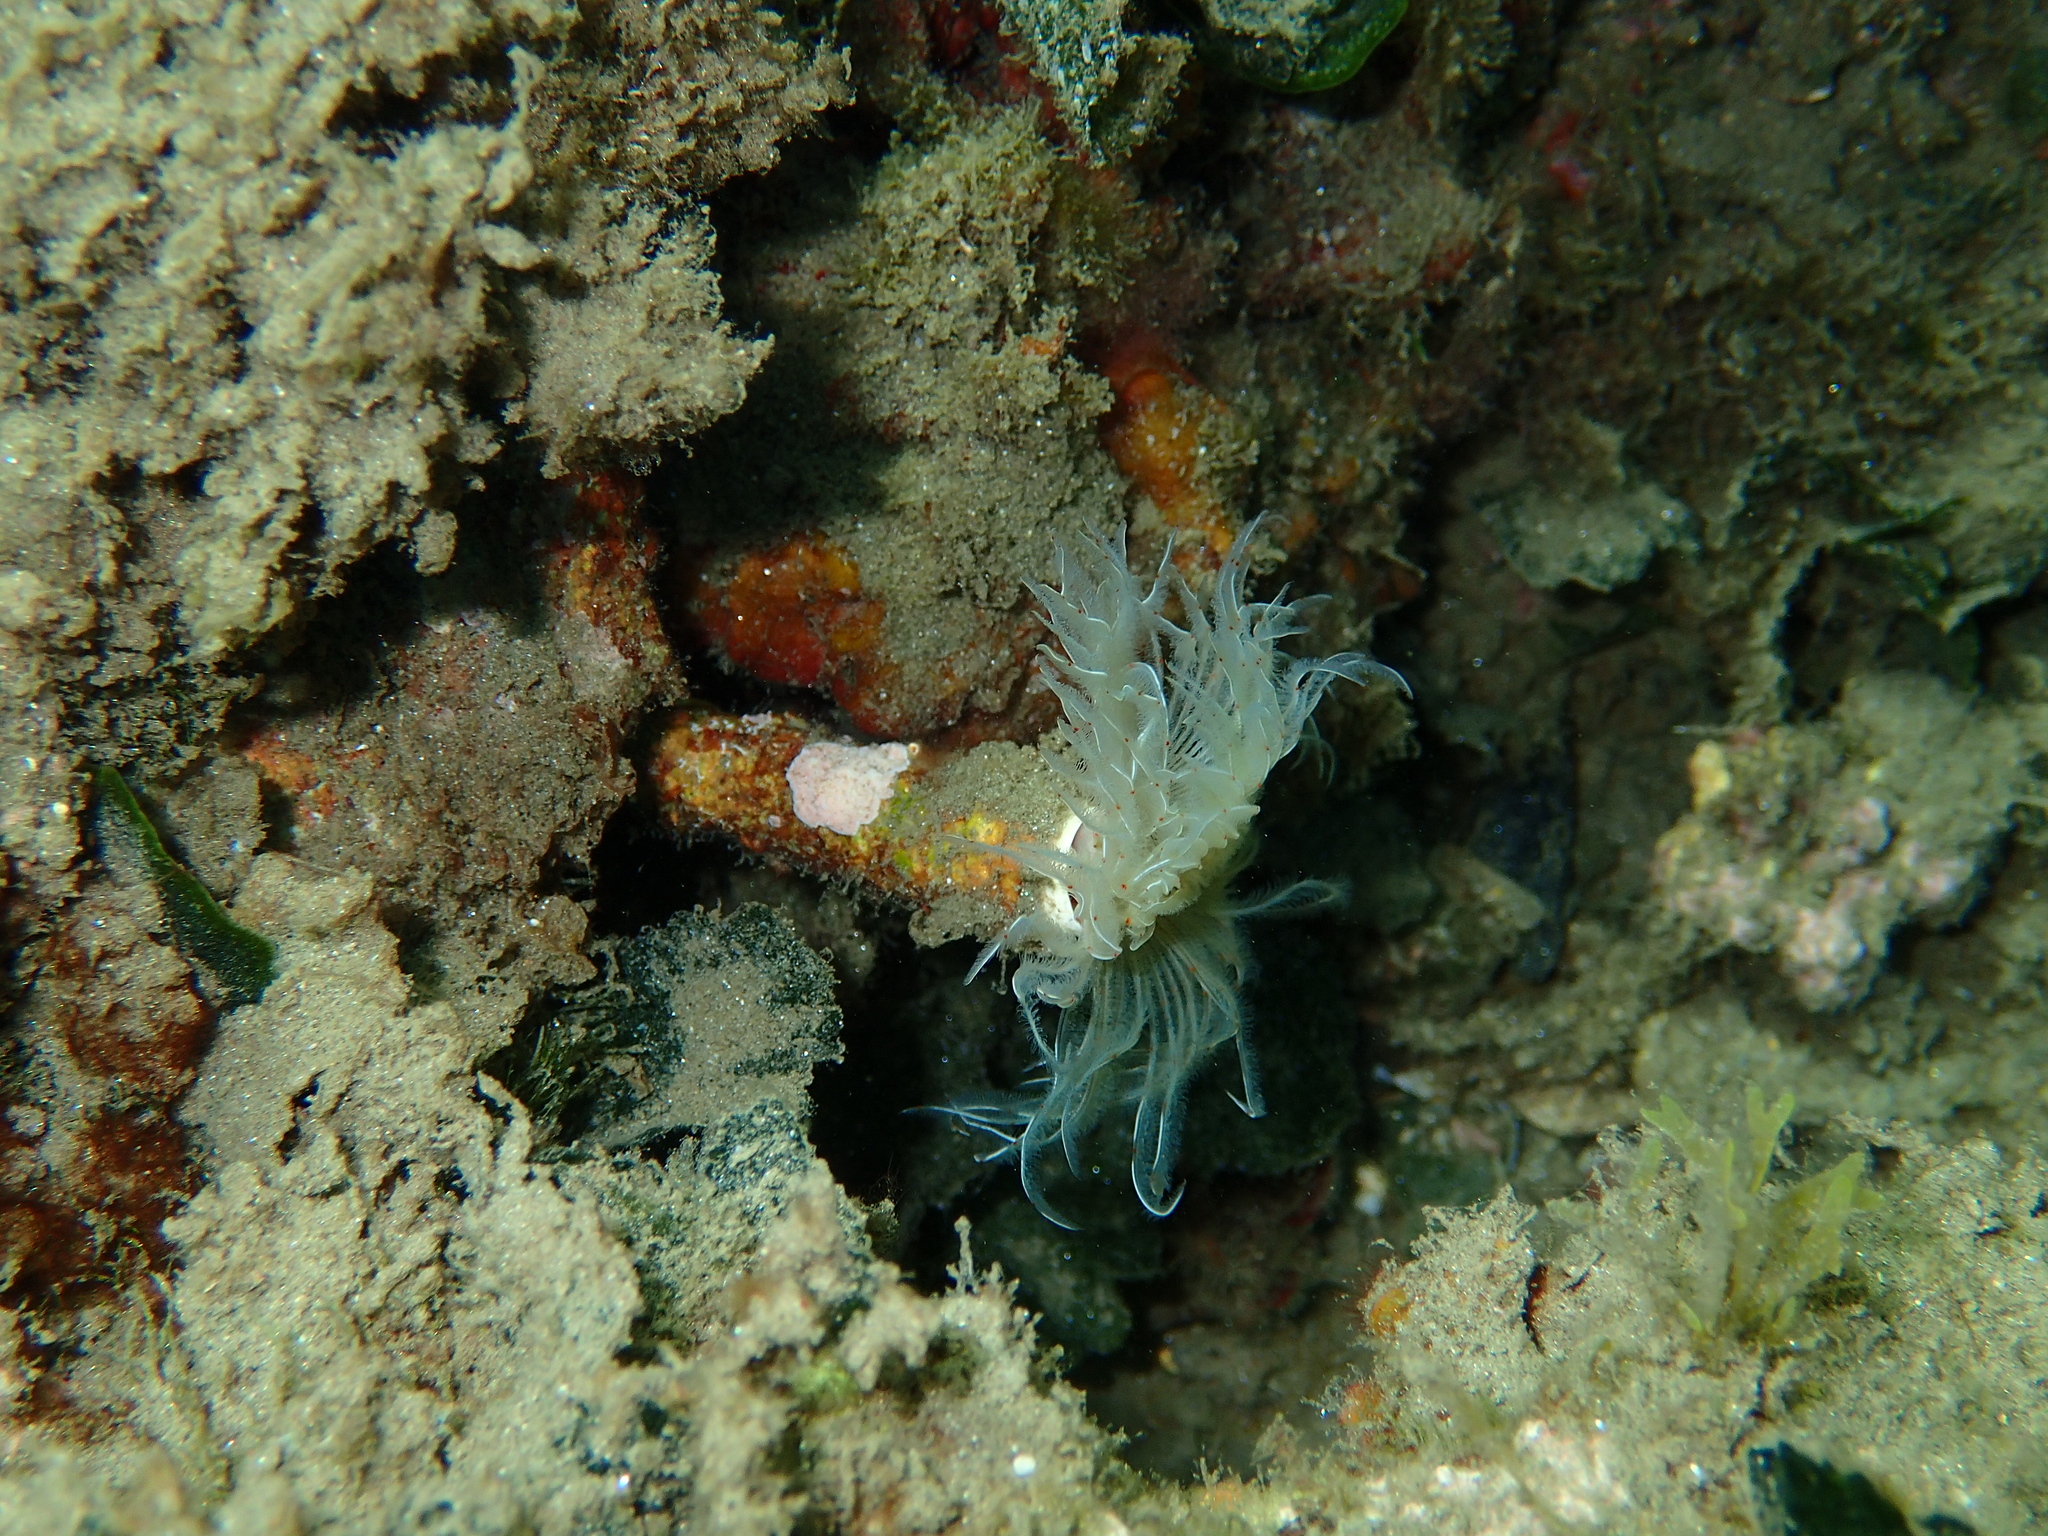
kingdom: Animalia
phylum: Annelida
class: Polychaeta
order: Sabellida
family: Serpulidae
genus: Protula
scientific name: Protula tubularia
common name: Red-spotted horseshoe
